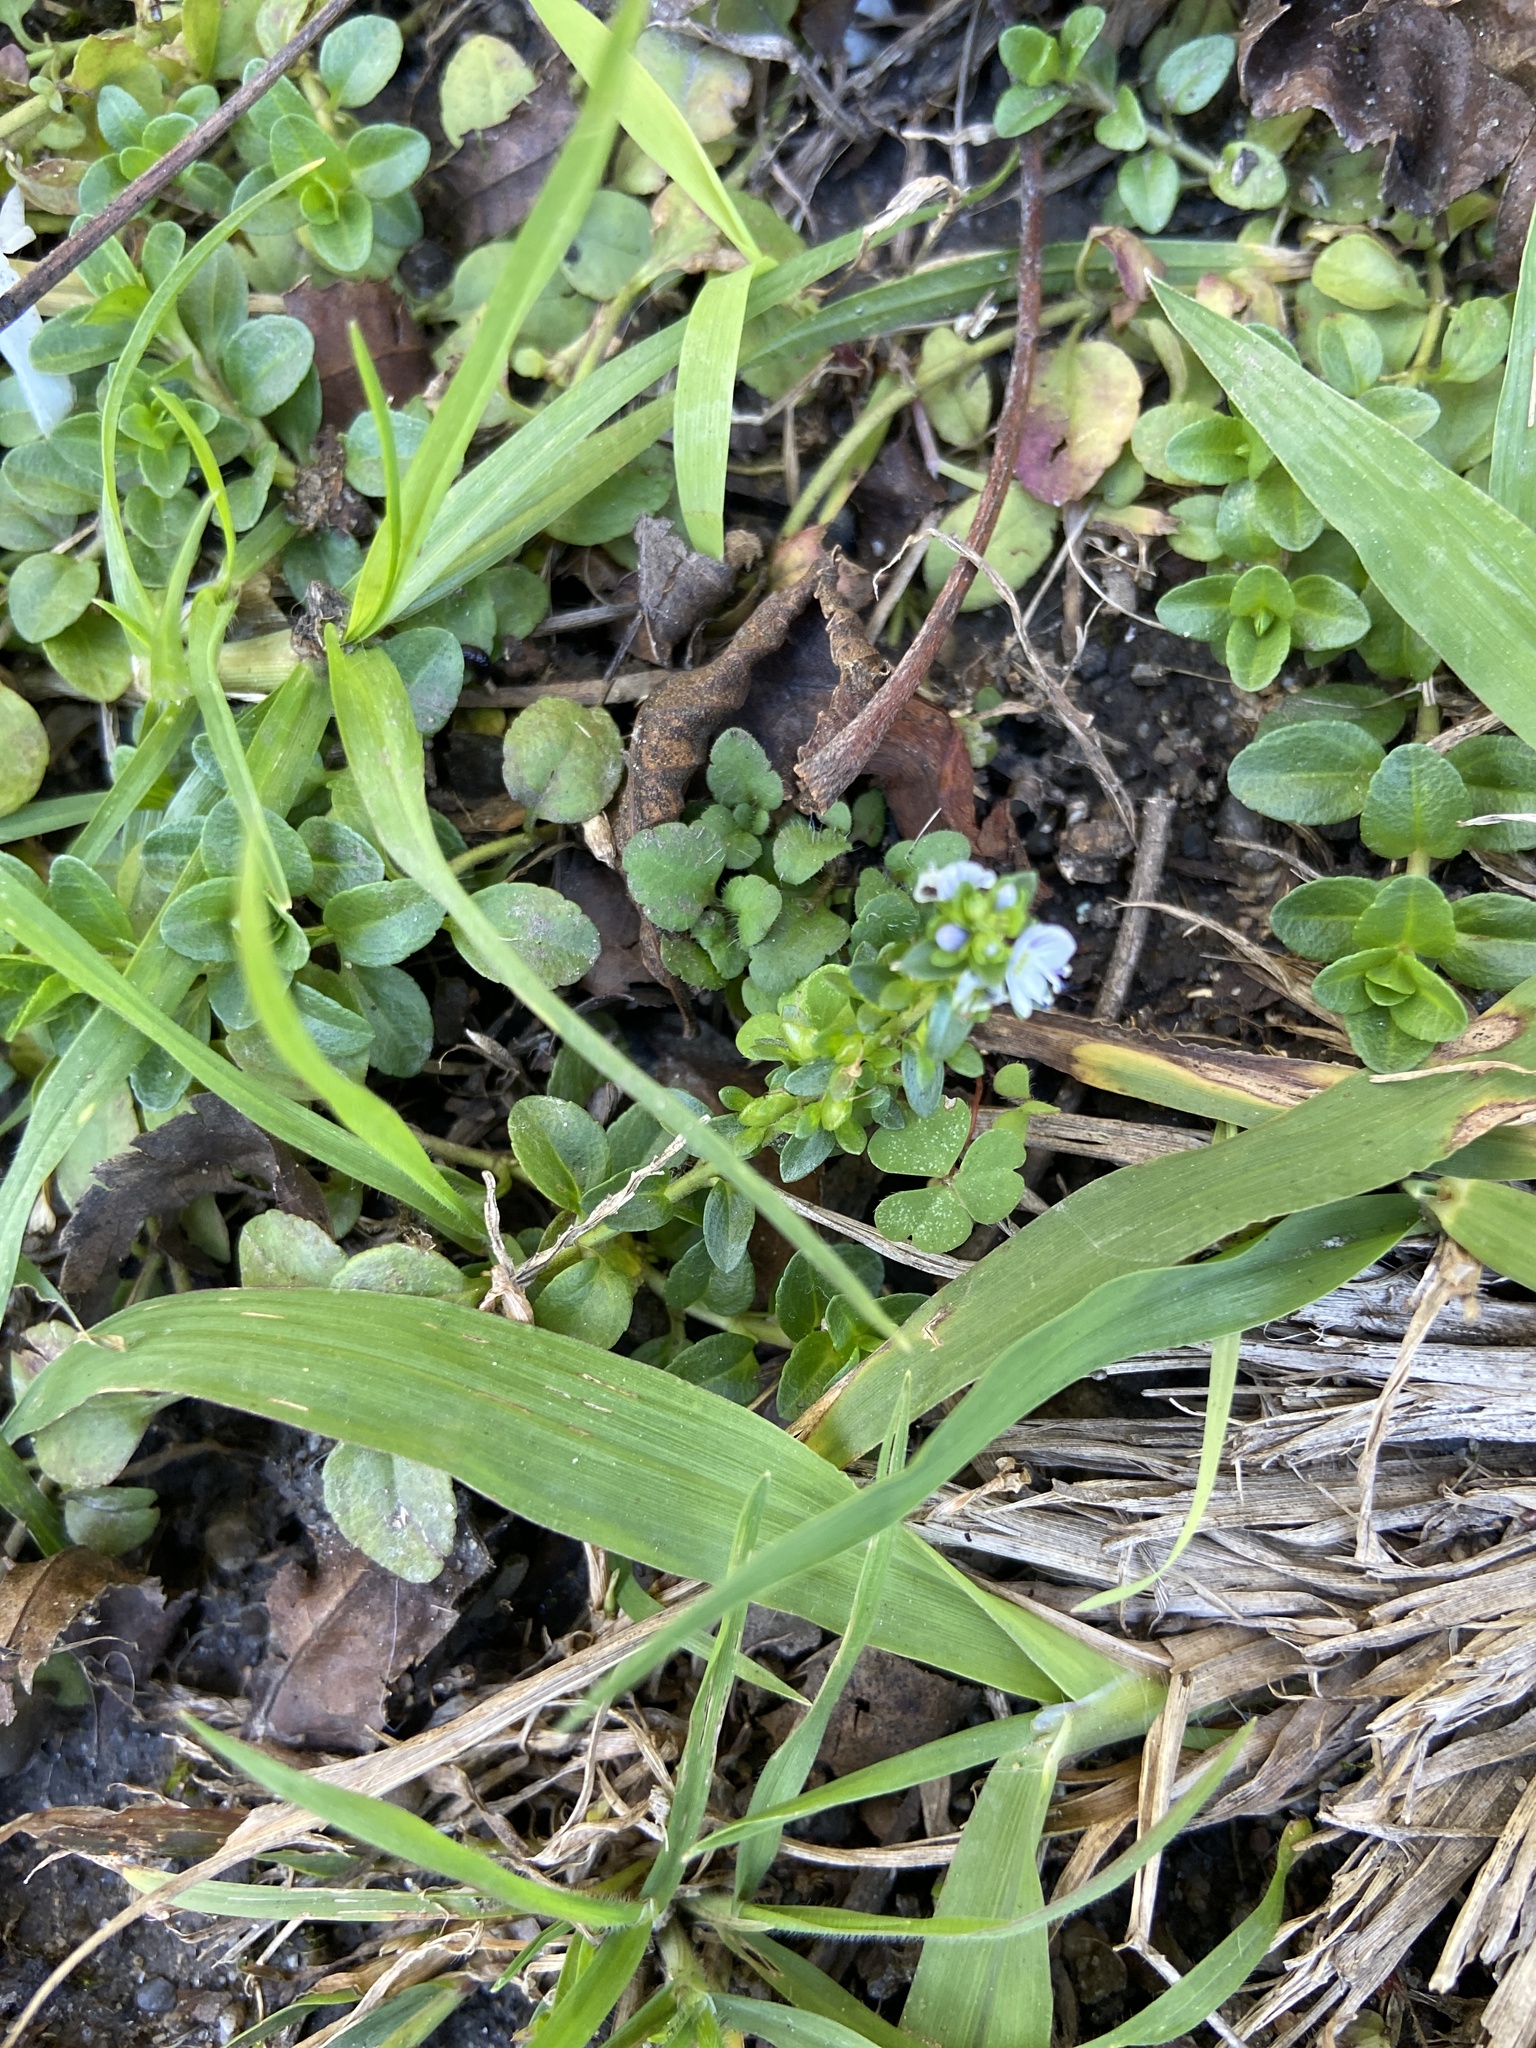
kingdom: Plantae
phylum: Tracheophyta
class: Magnoliopsida
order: Lamiales
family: Plantaginaceae
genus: Veronica
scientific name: Veronica serpyllifolia
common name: Thyme-leaved speedwell
